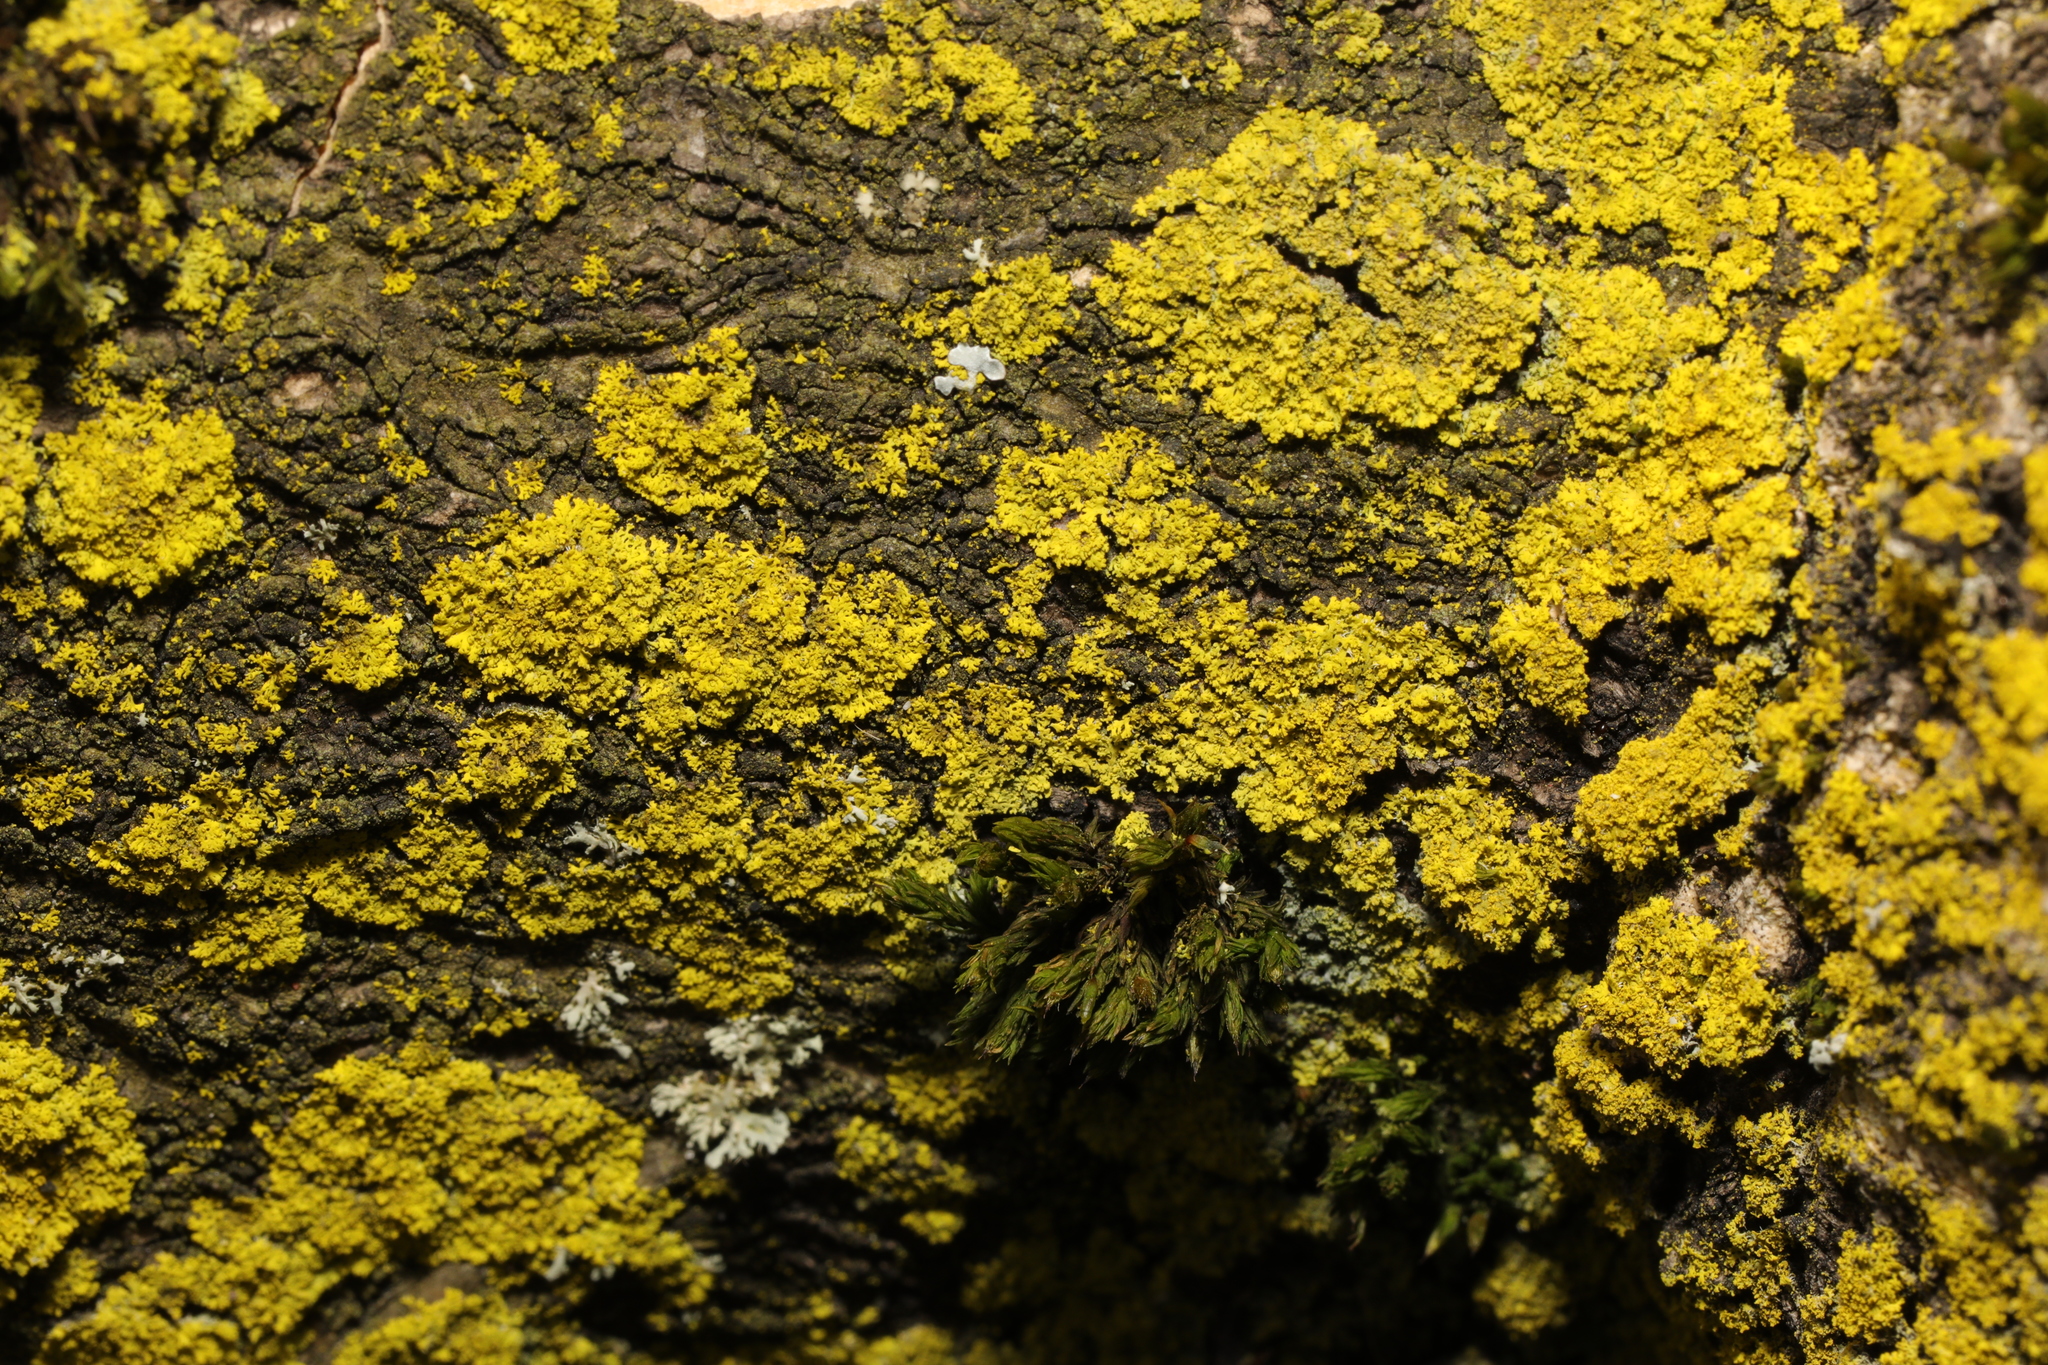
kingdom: Fungi
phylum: Ascomycota
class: Candelariomycetes
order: Candelariales
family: Candelariaceae
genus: Candelaria
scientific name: Candelaria concolor
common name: Candleflame lichen
